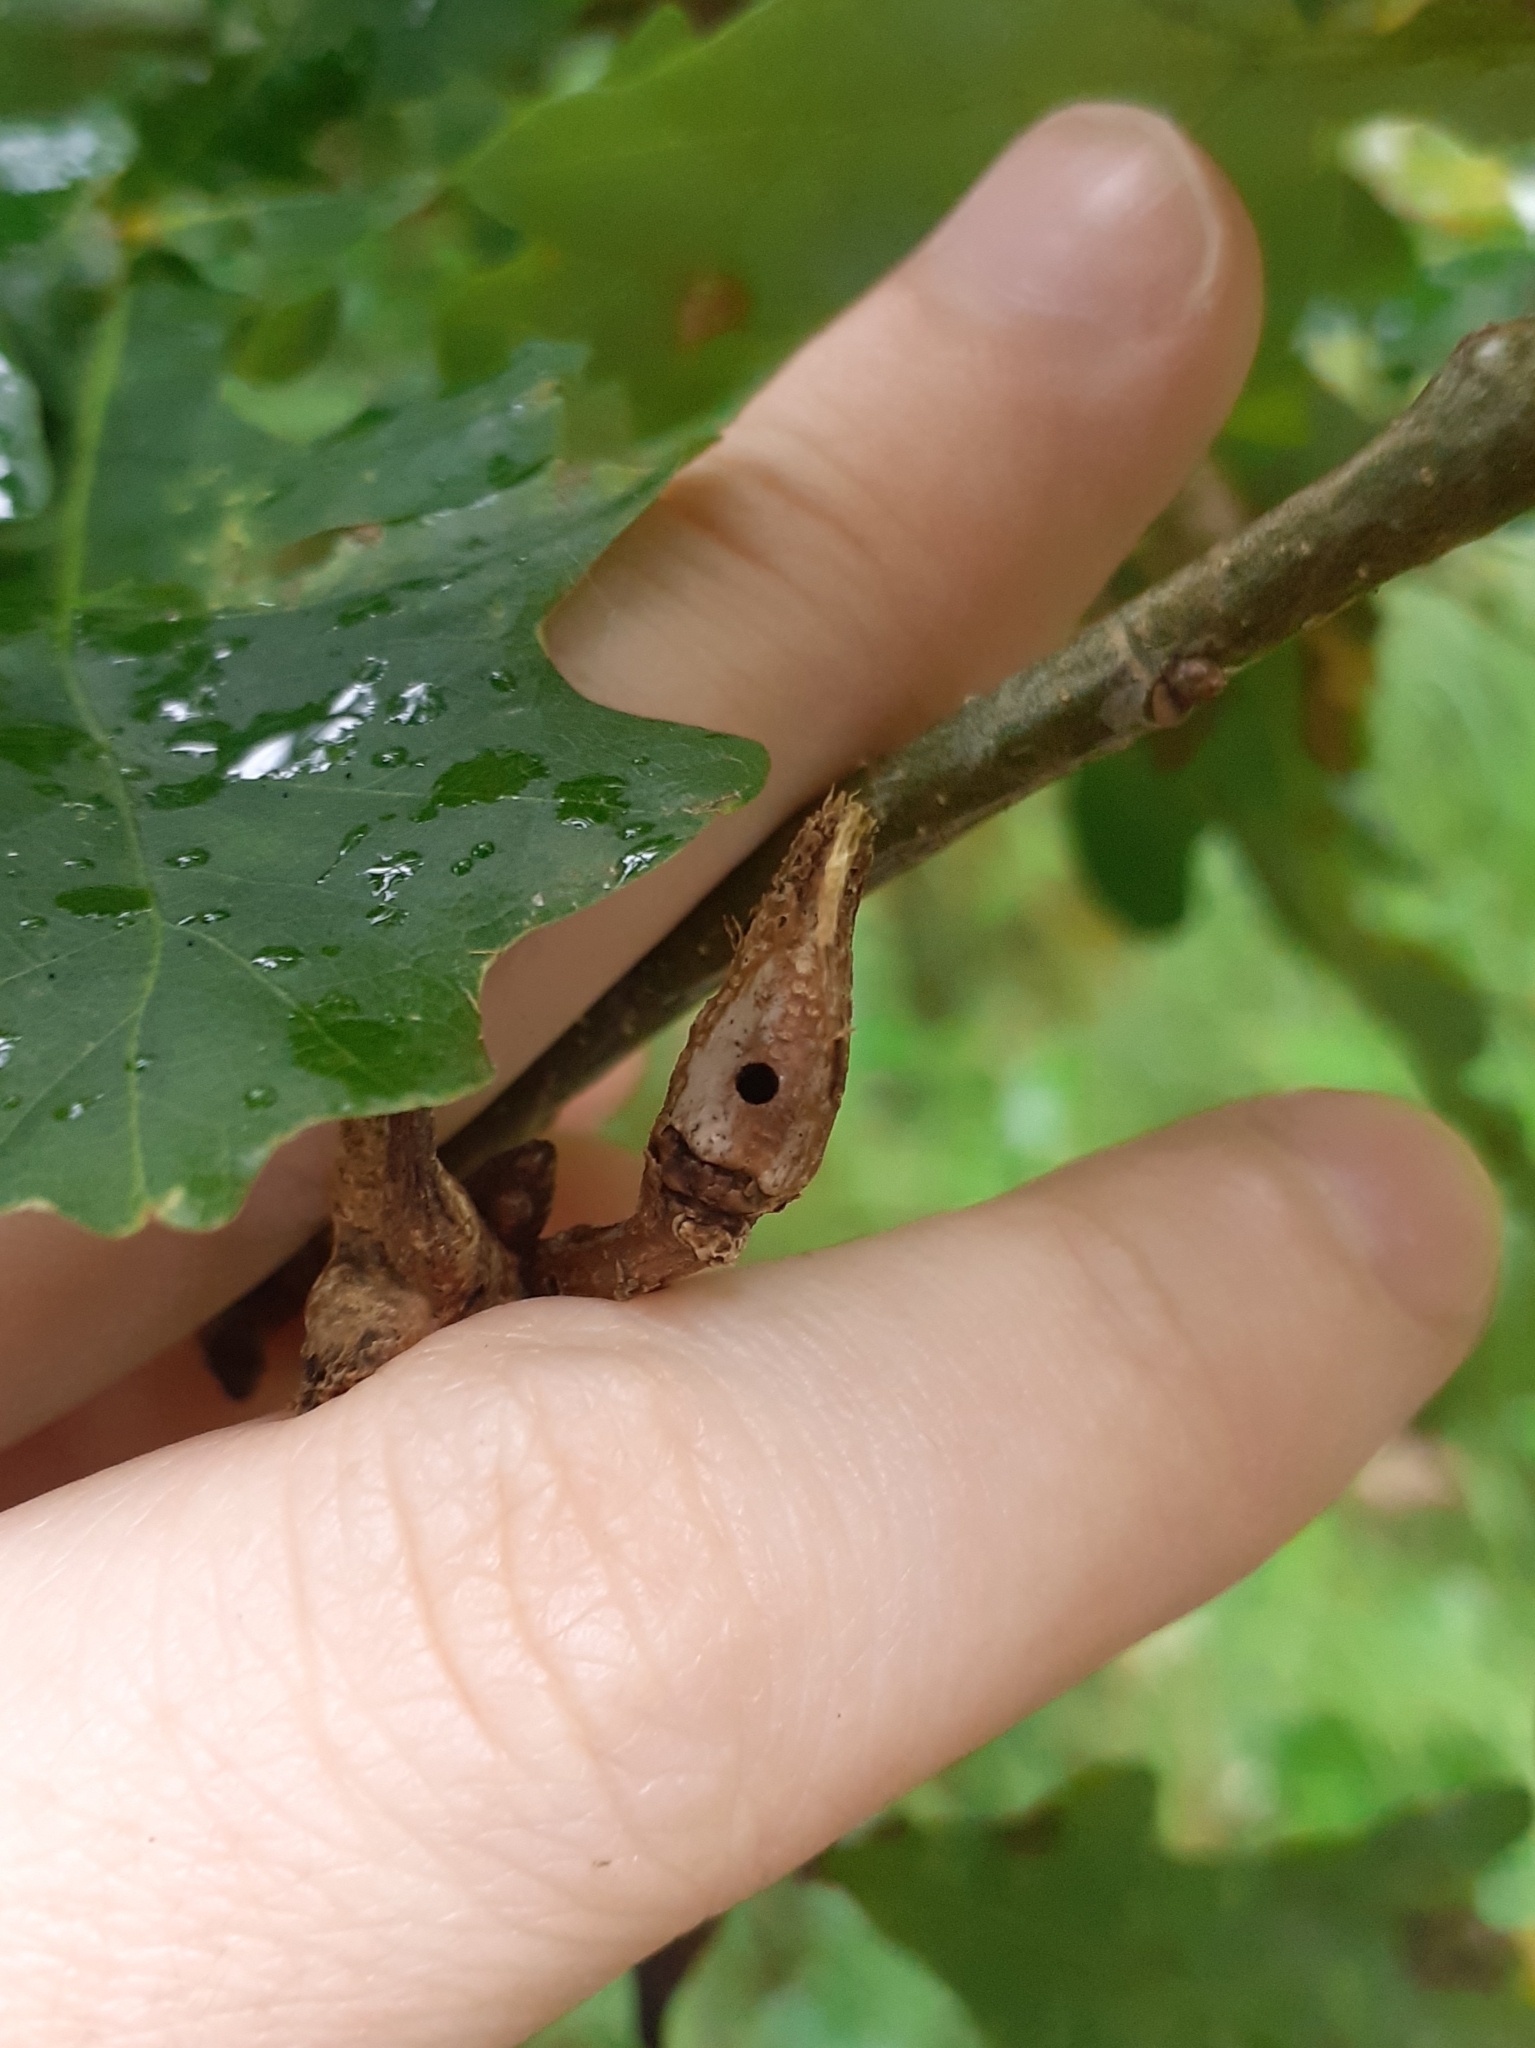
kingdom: Animalia
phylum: Arthropoda
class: Insecta
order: Hymenoptera
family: Cynipidae
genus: Andricus
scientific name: Andricus aries
